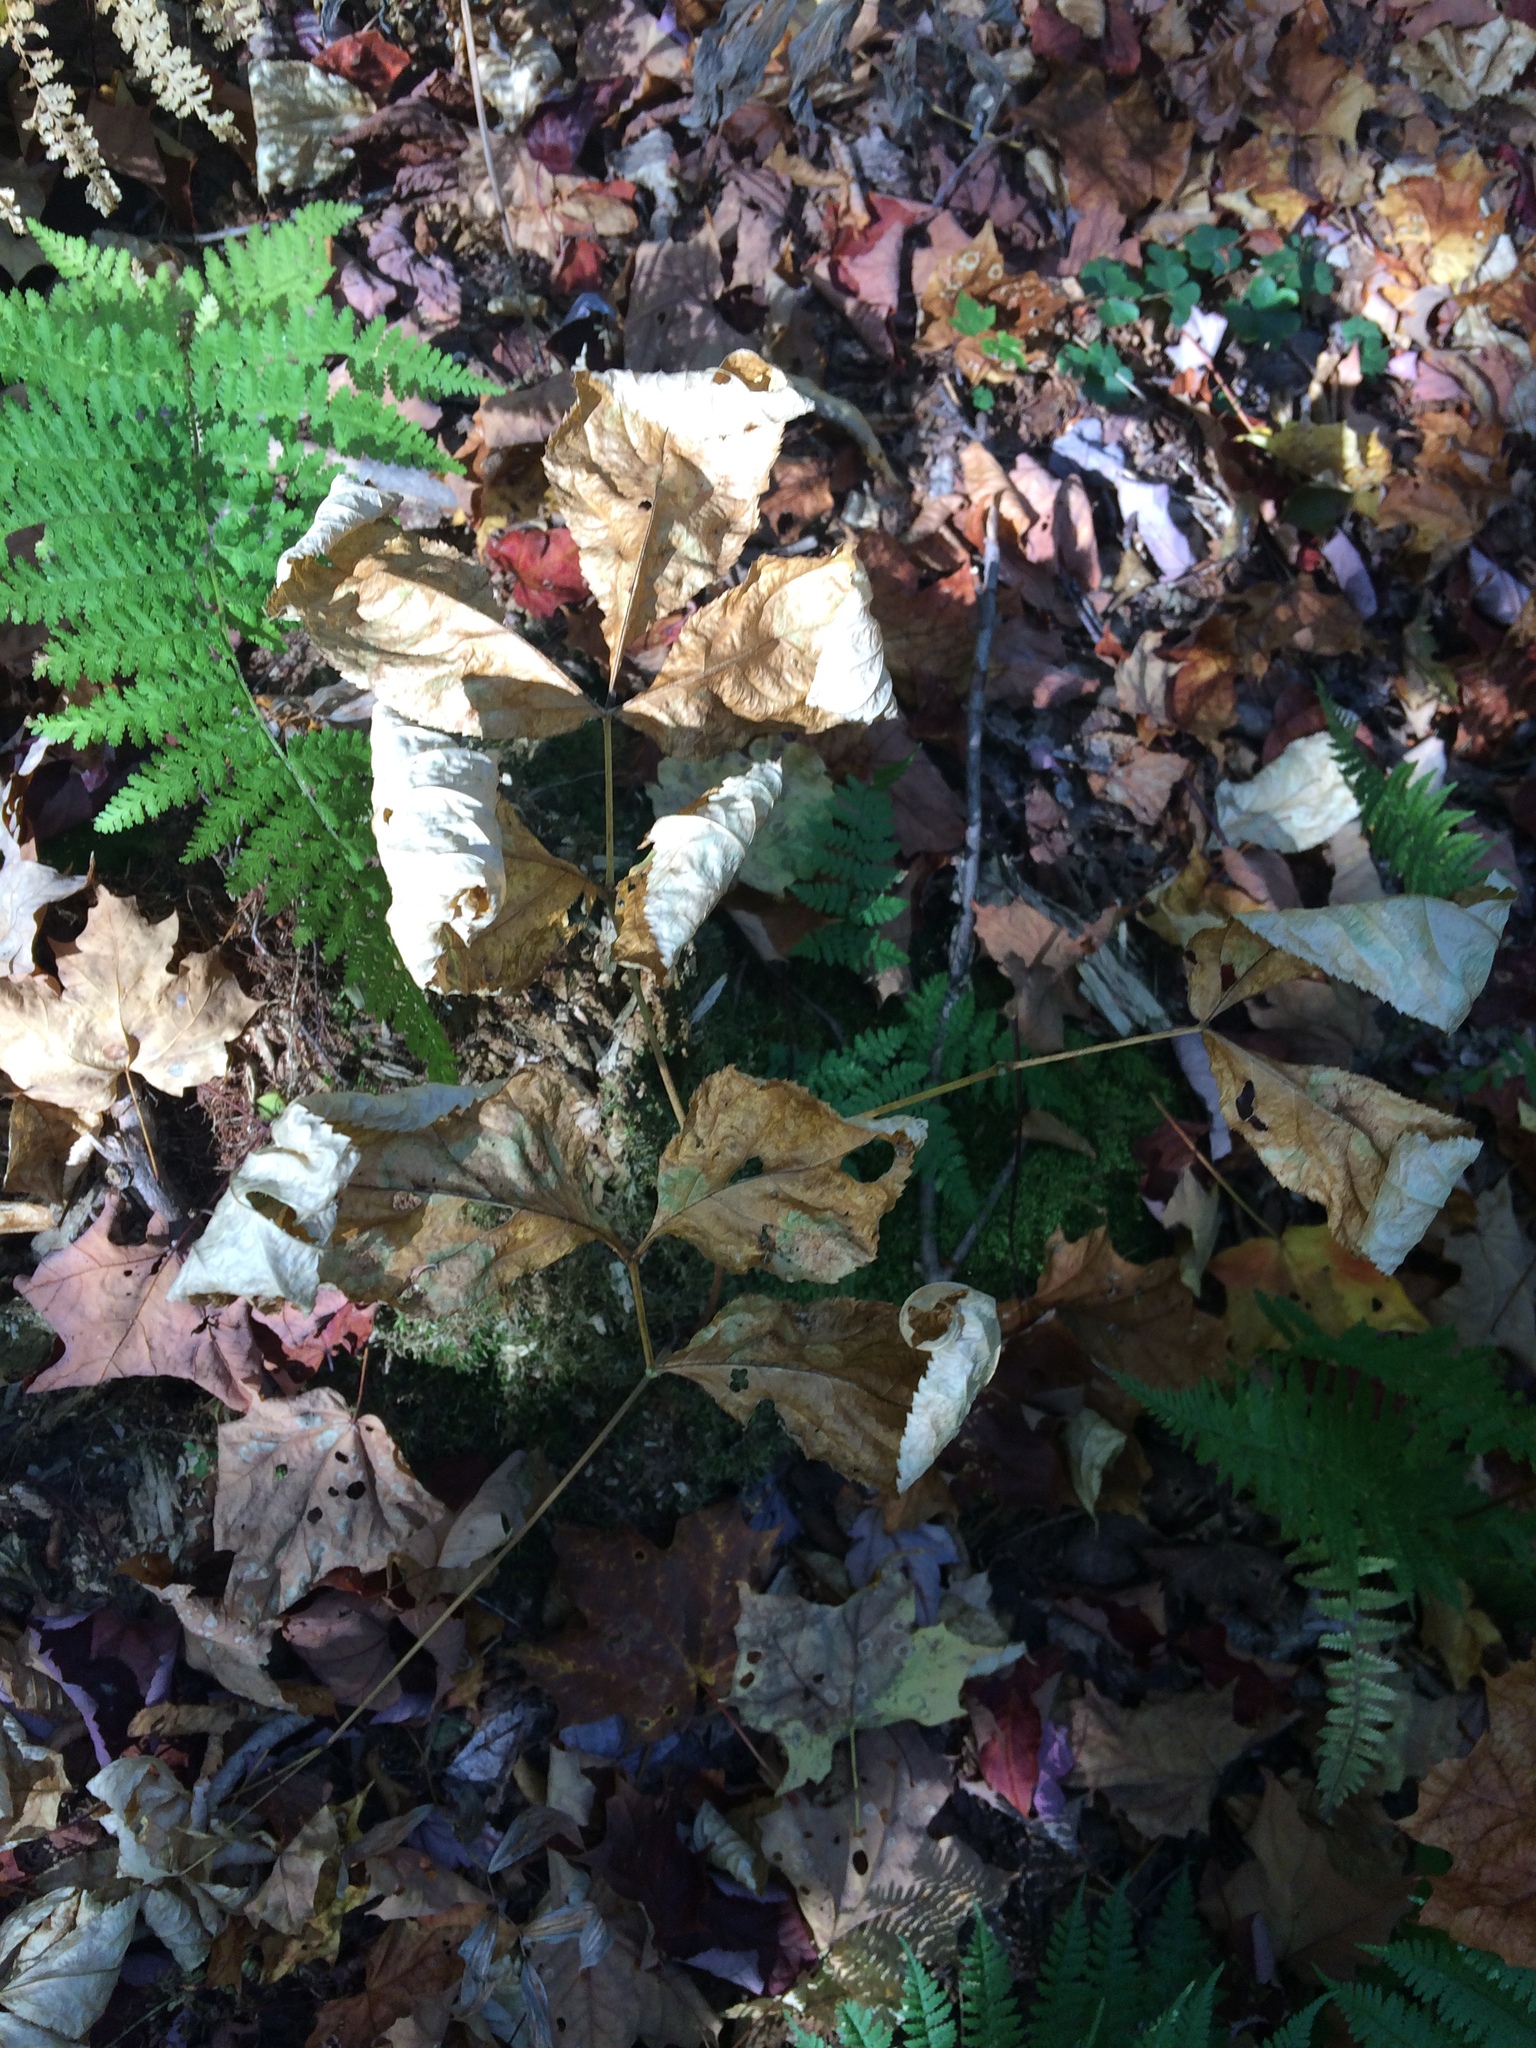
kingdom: Plantae
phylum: Tracheophyta
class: Magnoliopsida
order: Apiales
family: Araliaceae
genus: Aralia
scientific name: Aralia nudicaulis
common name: Wild sarsaparilla
